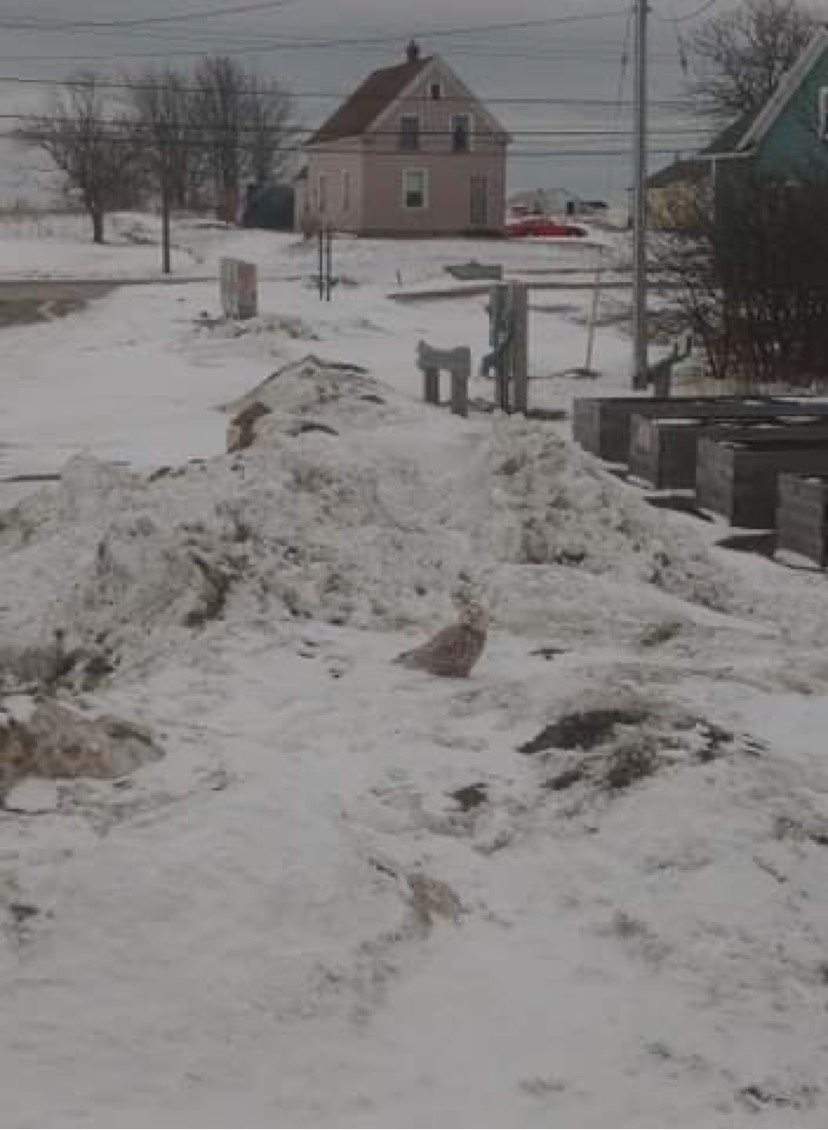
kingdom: Animalia
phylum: Chordata
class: Aves
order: Strigiformes
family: Strigidae
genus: Bubo
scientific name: Bubo scandiacus
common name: Snowy owl
